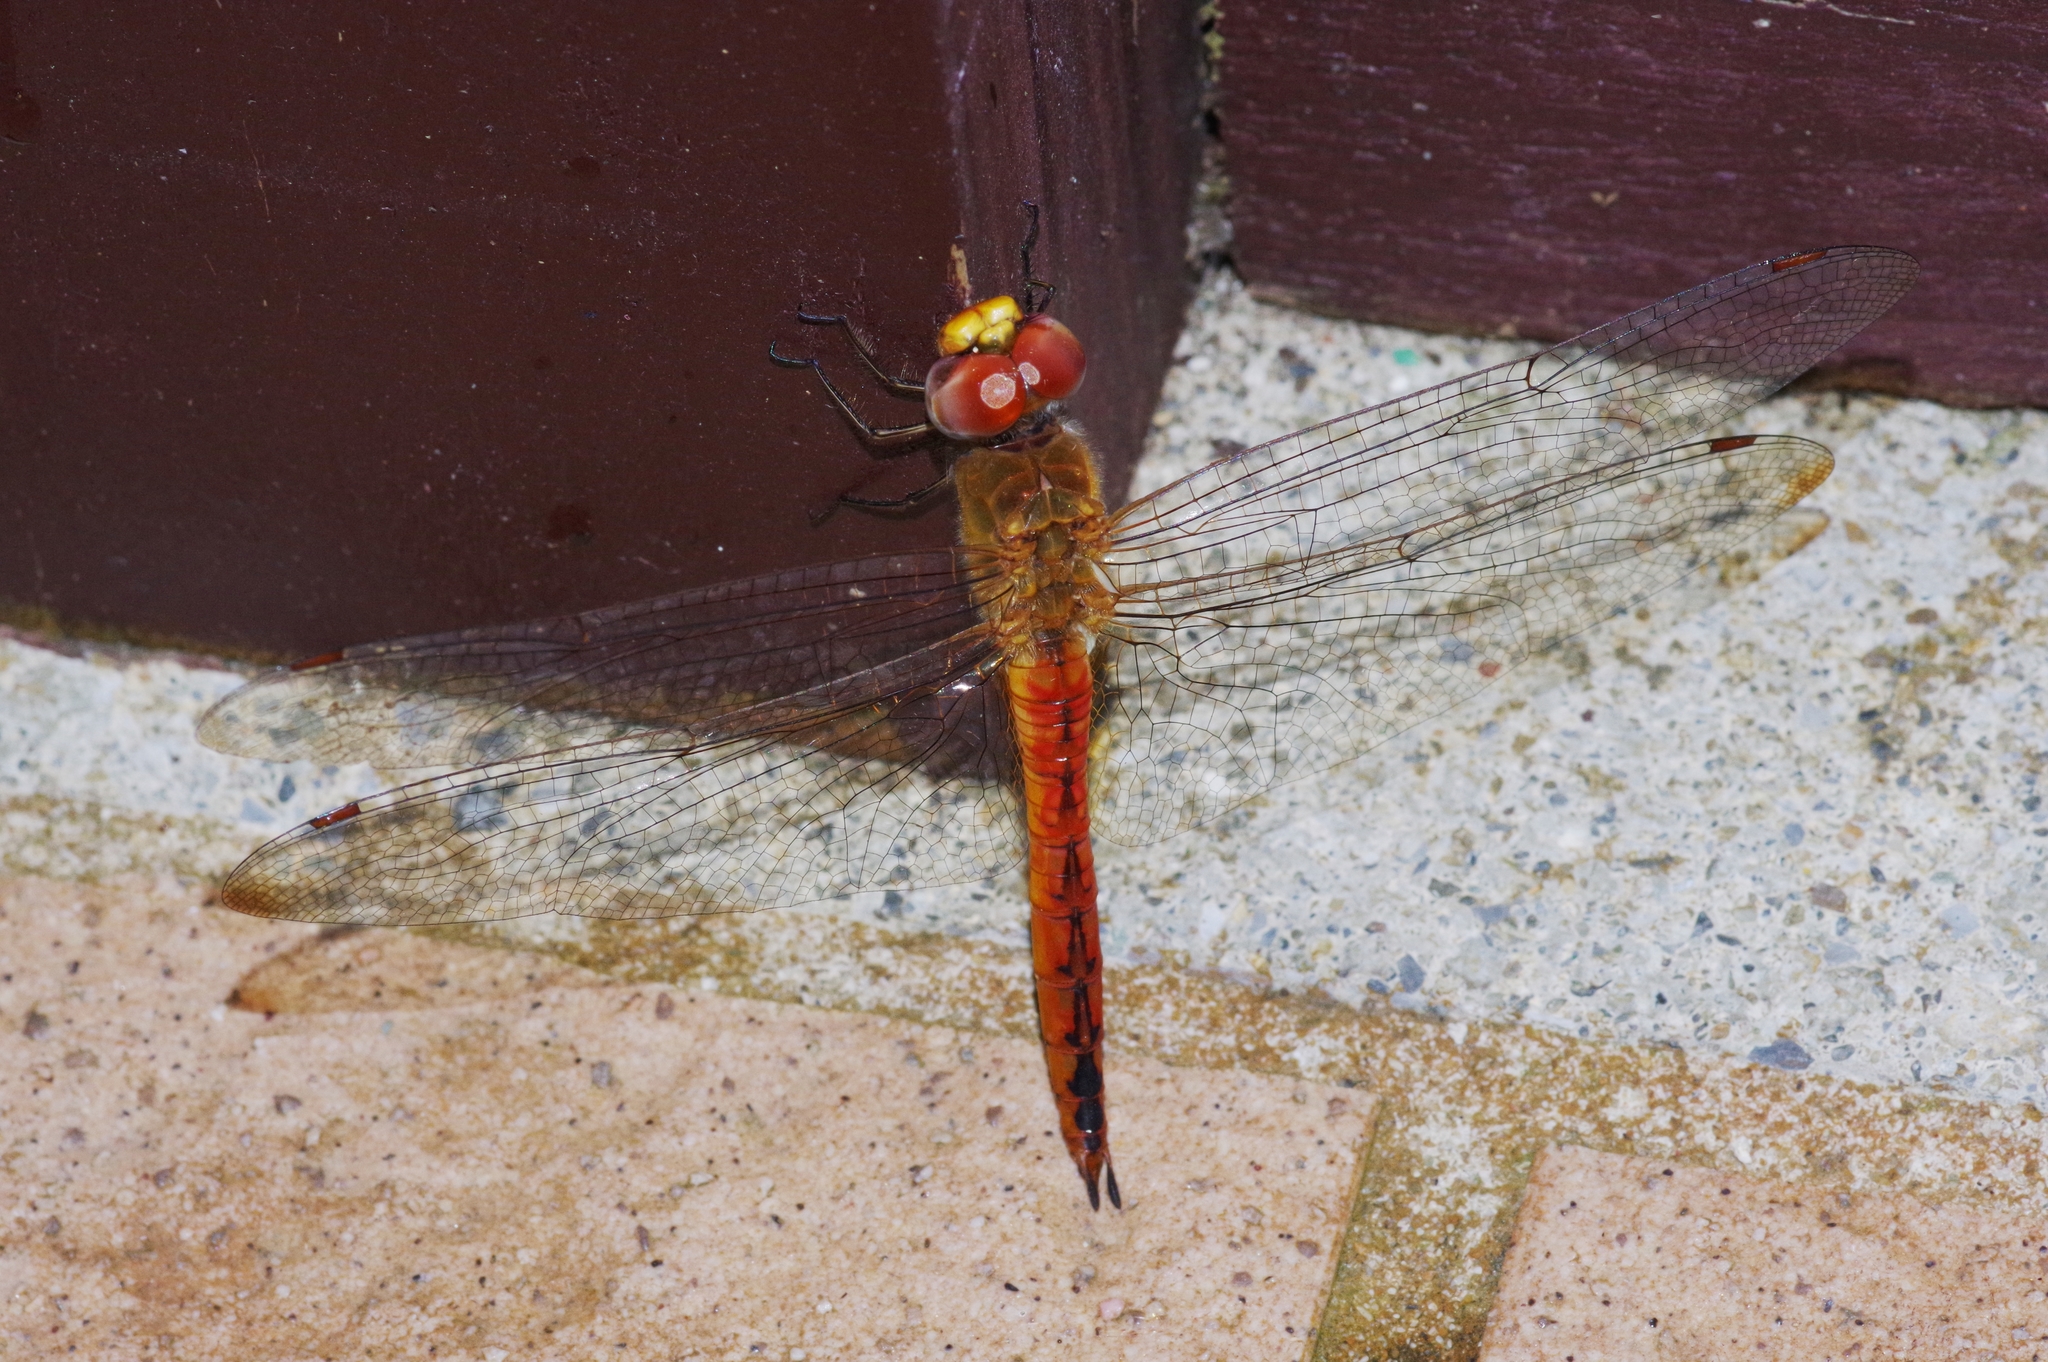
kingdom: Animalia
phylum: Arthropoda
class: Insecta
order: Odonata
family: Libellulidae
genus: Pantala
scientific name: Pantala flavescens
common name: Wandering glider
